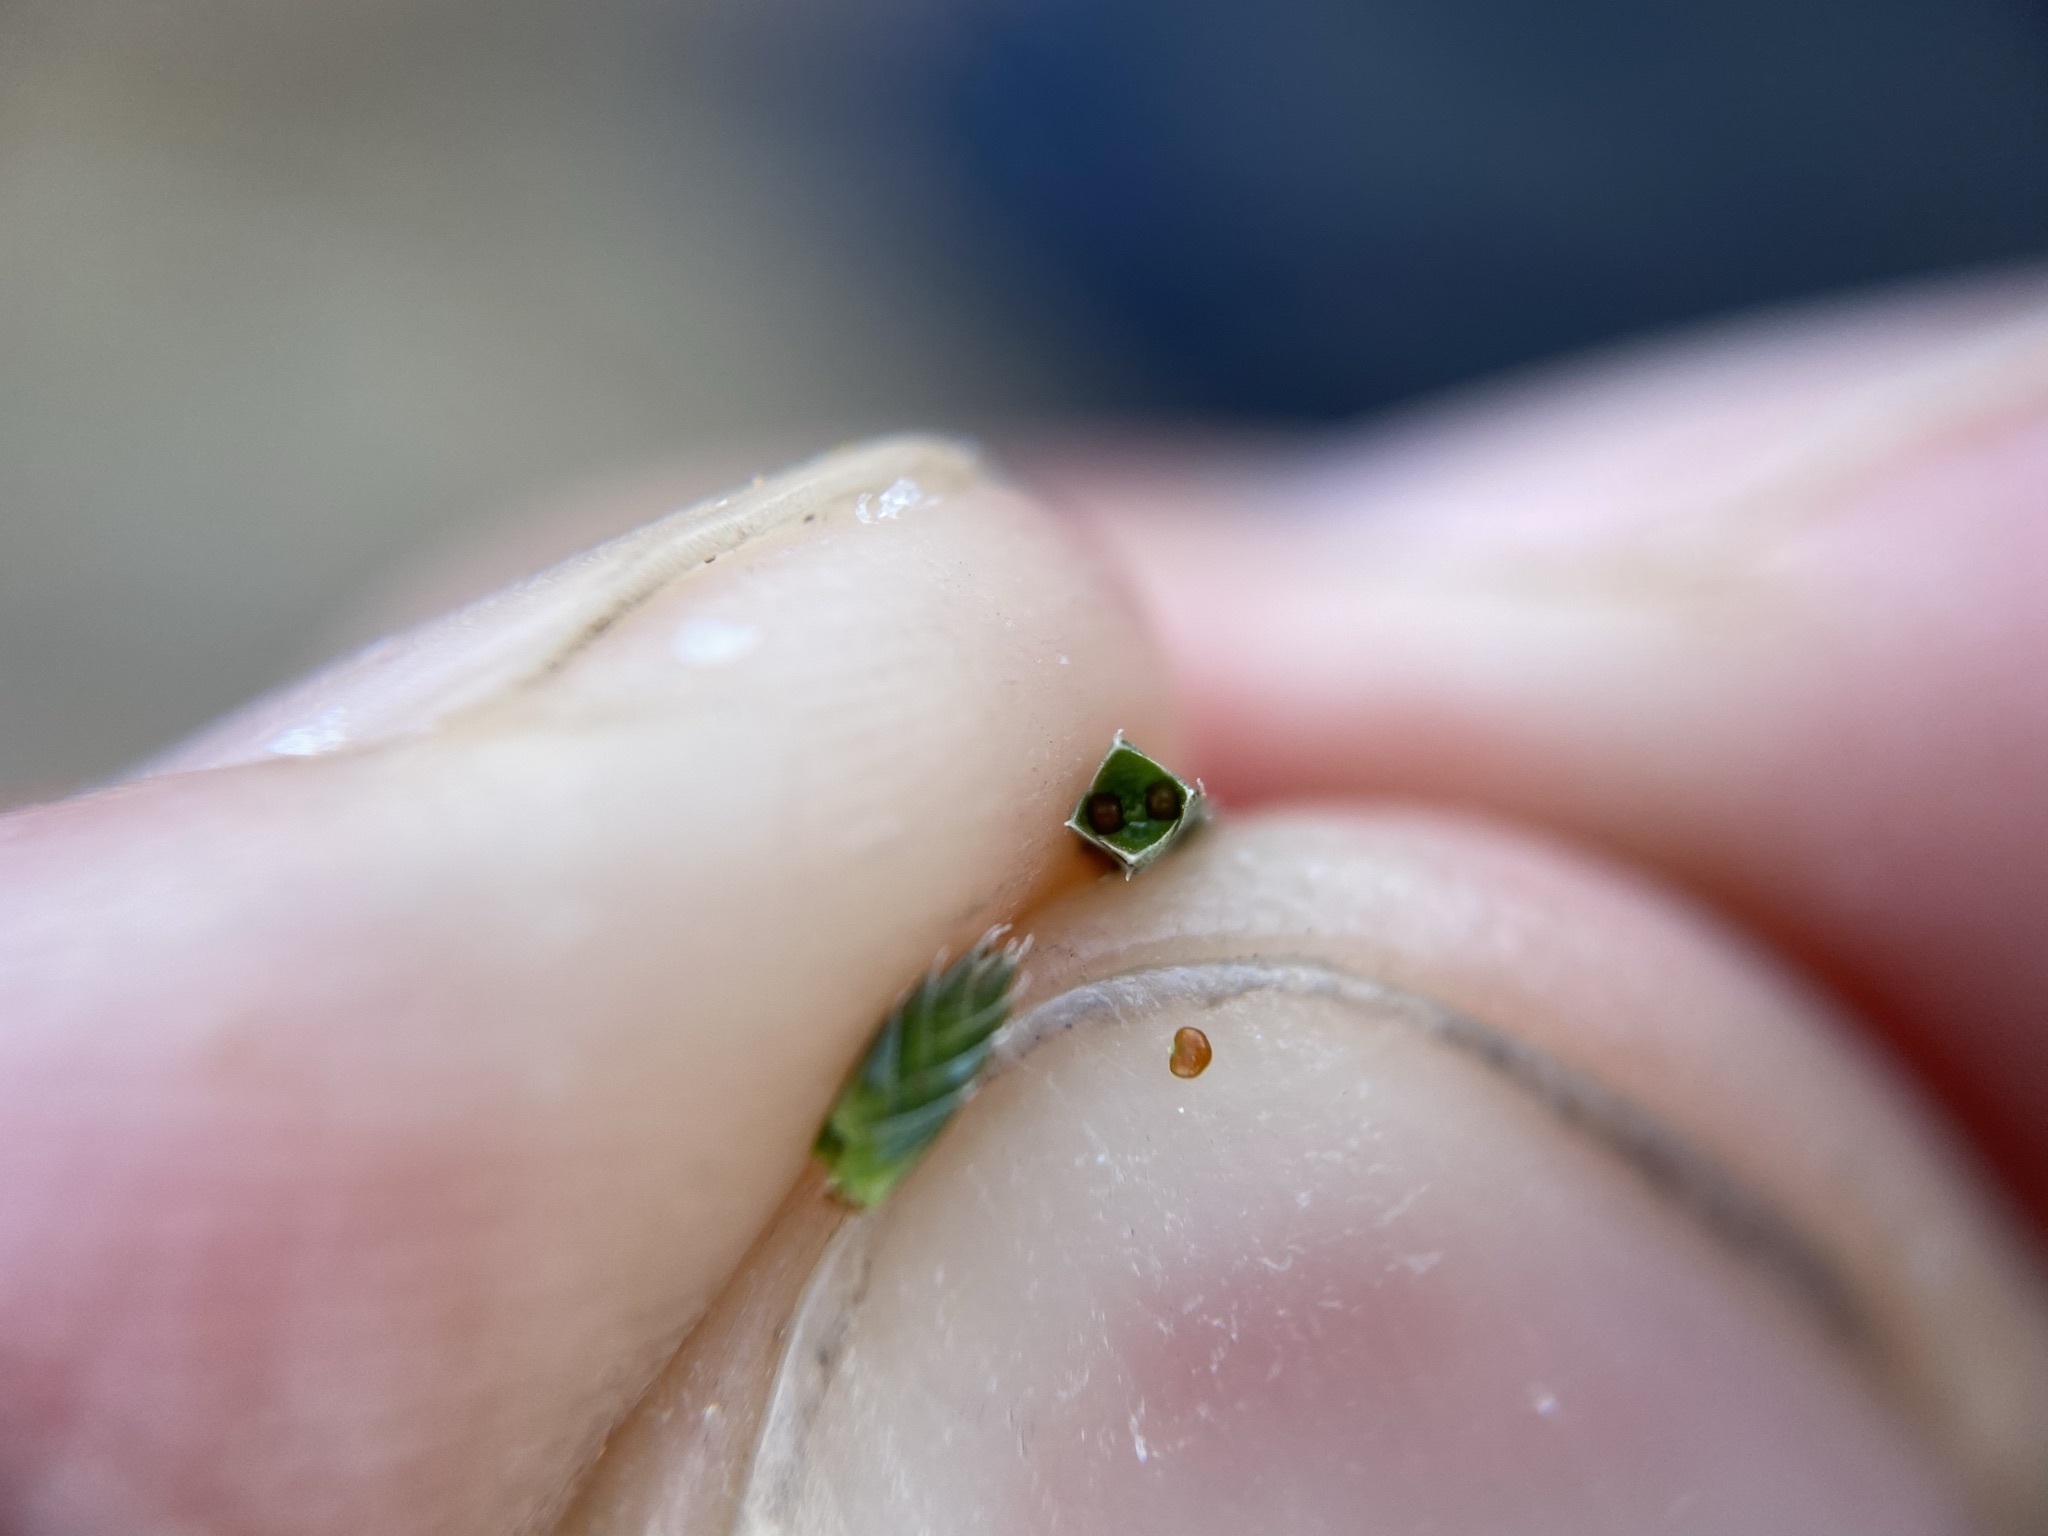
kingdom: Plantae
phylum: Tracheophyta
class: Lycopodiopsida
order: Selaginellales
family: Selaginellaceae
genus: Selaginella
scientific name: Selaginella corallina
